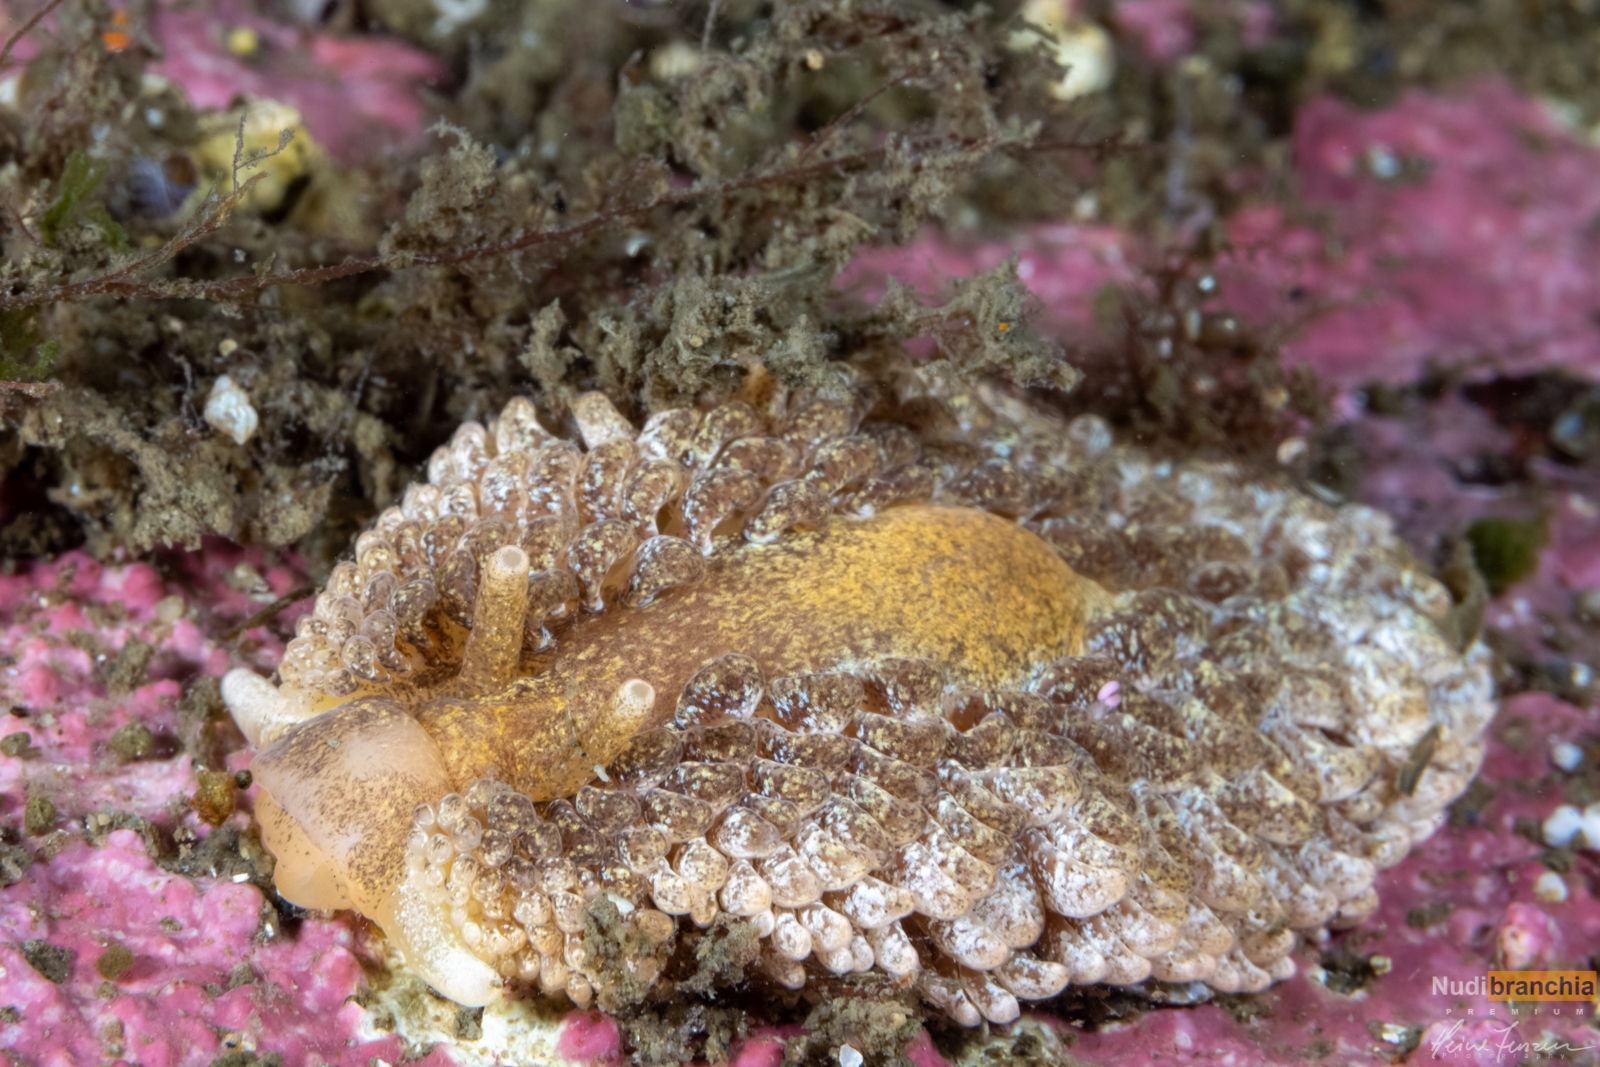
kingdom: Animalia
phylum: Mollusca
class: Gastropoda
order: Nudibranchia
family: Aeolidiidae
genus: Aeolidia
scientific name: Aeolidia papillosa
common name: Common grey sea slug
